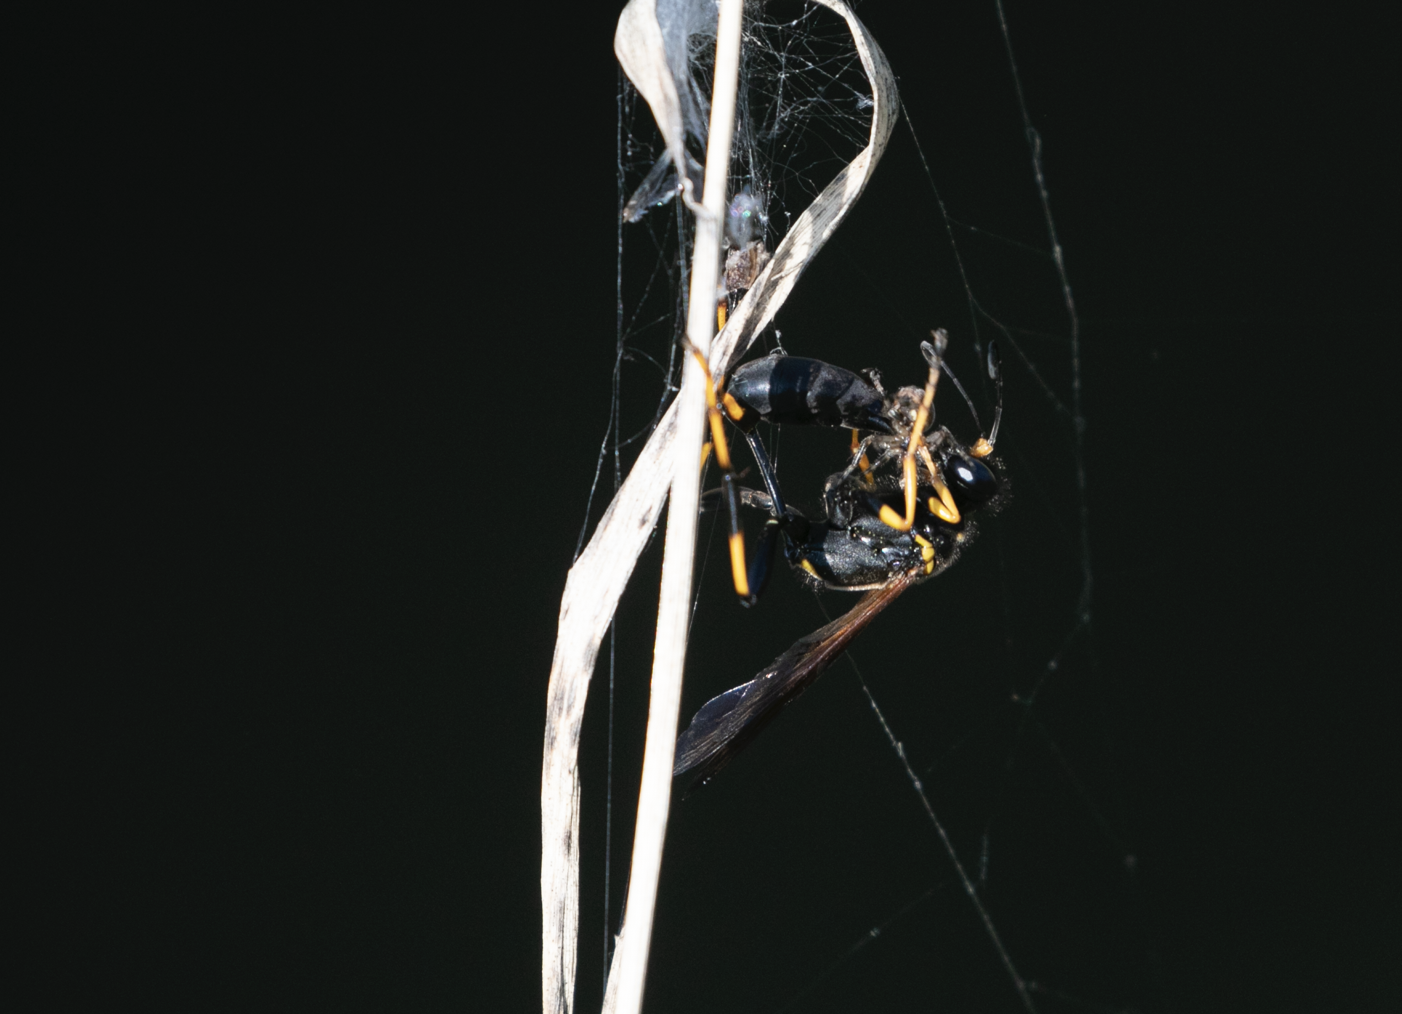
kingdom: Animalia
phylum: Arthropoda
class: Insecta
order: Hymenoptera
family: Sphecidae
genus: Sceliphron
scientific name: Sceliphron caementarium
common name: Mud dauber
